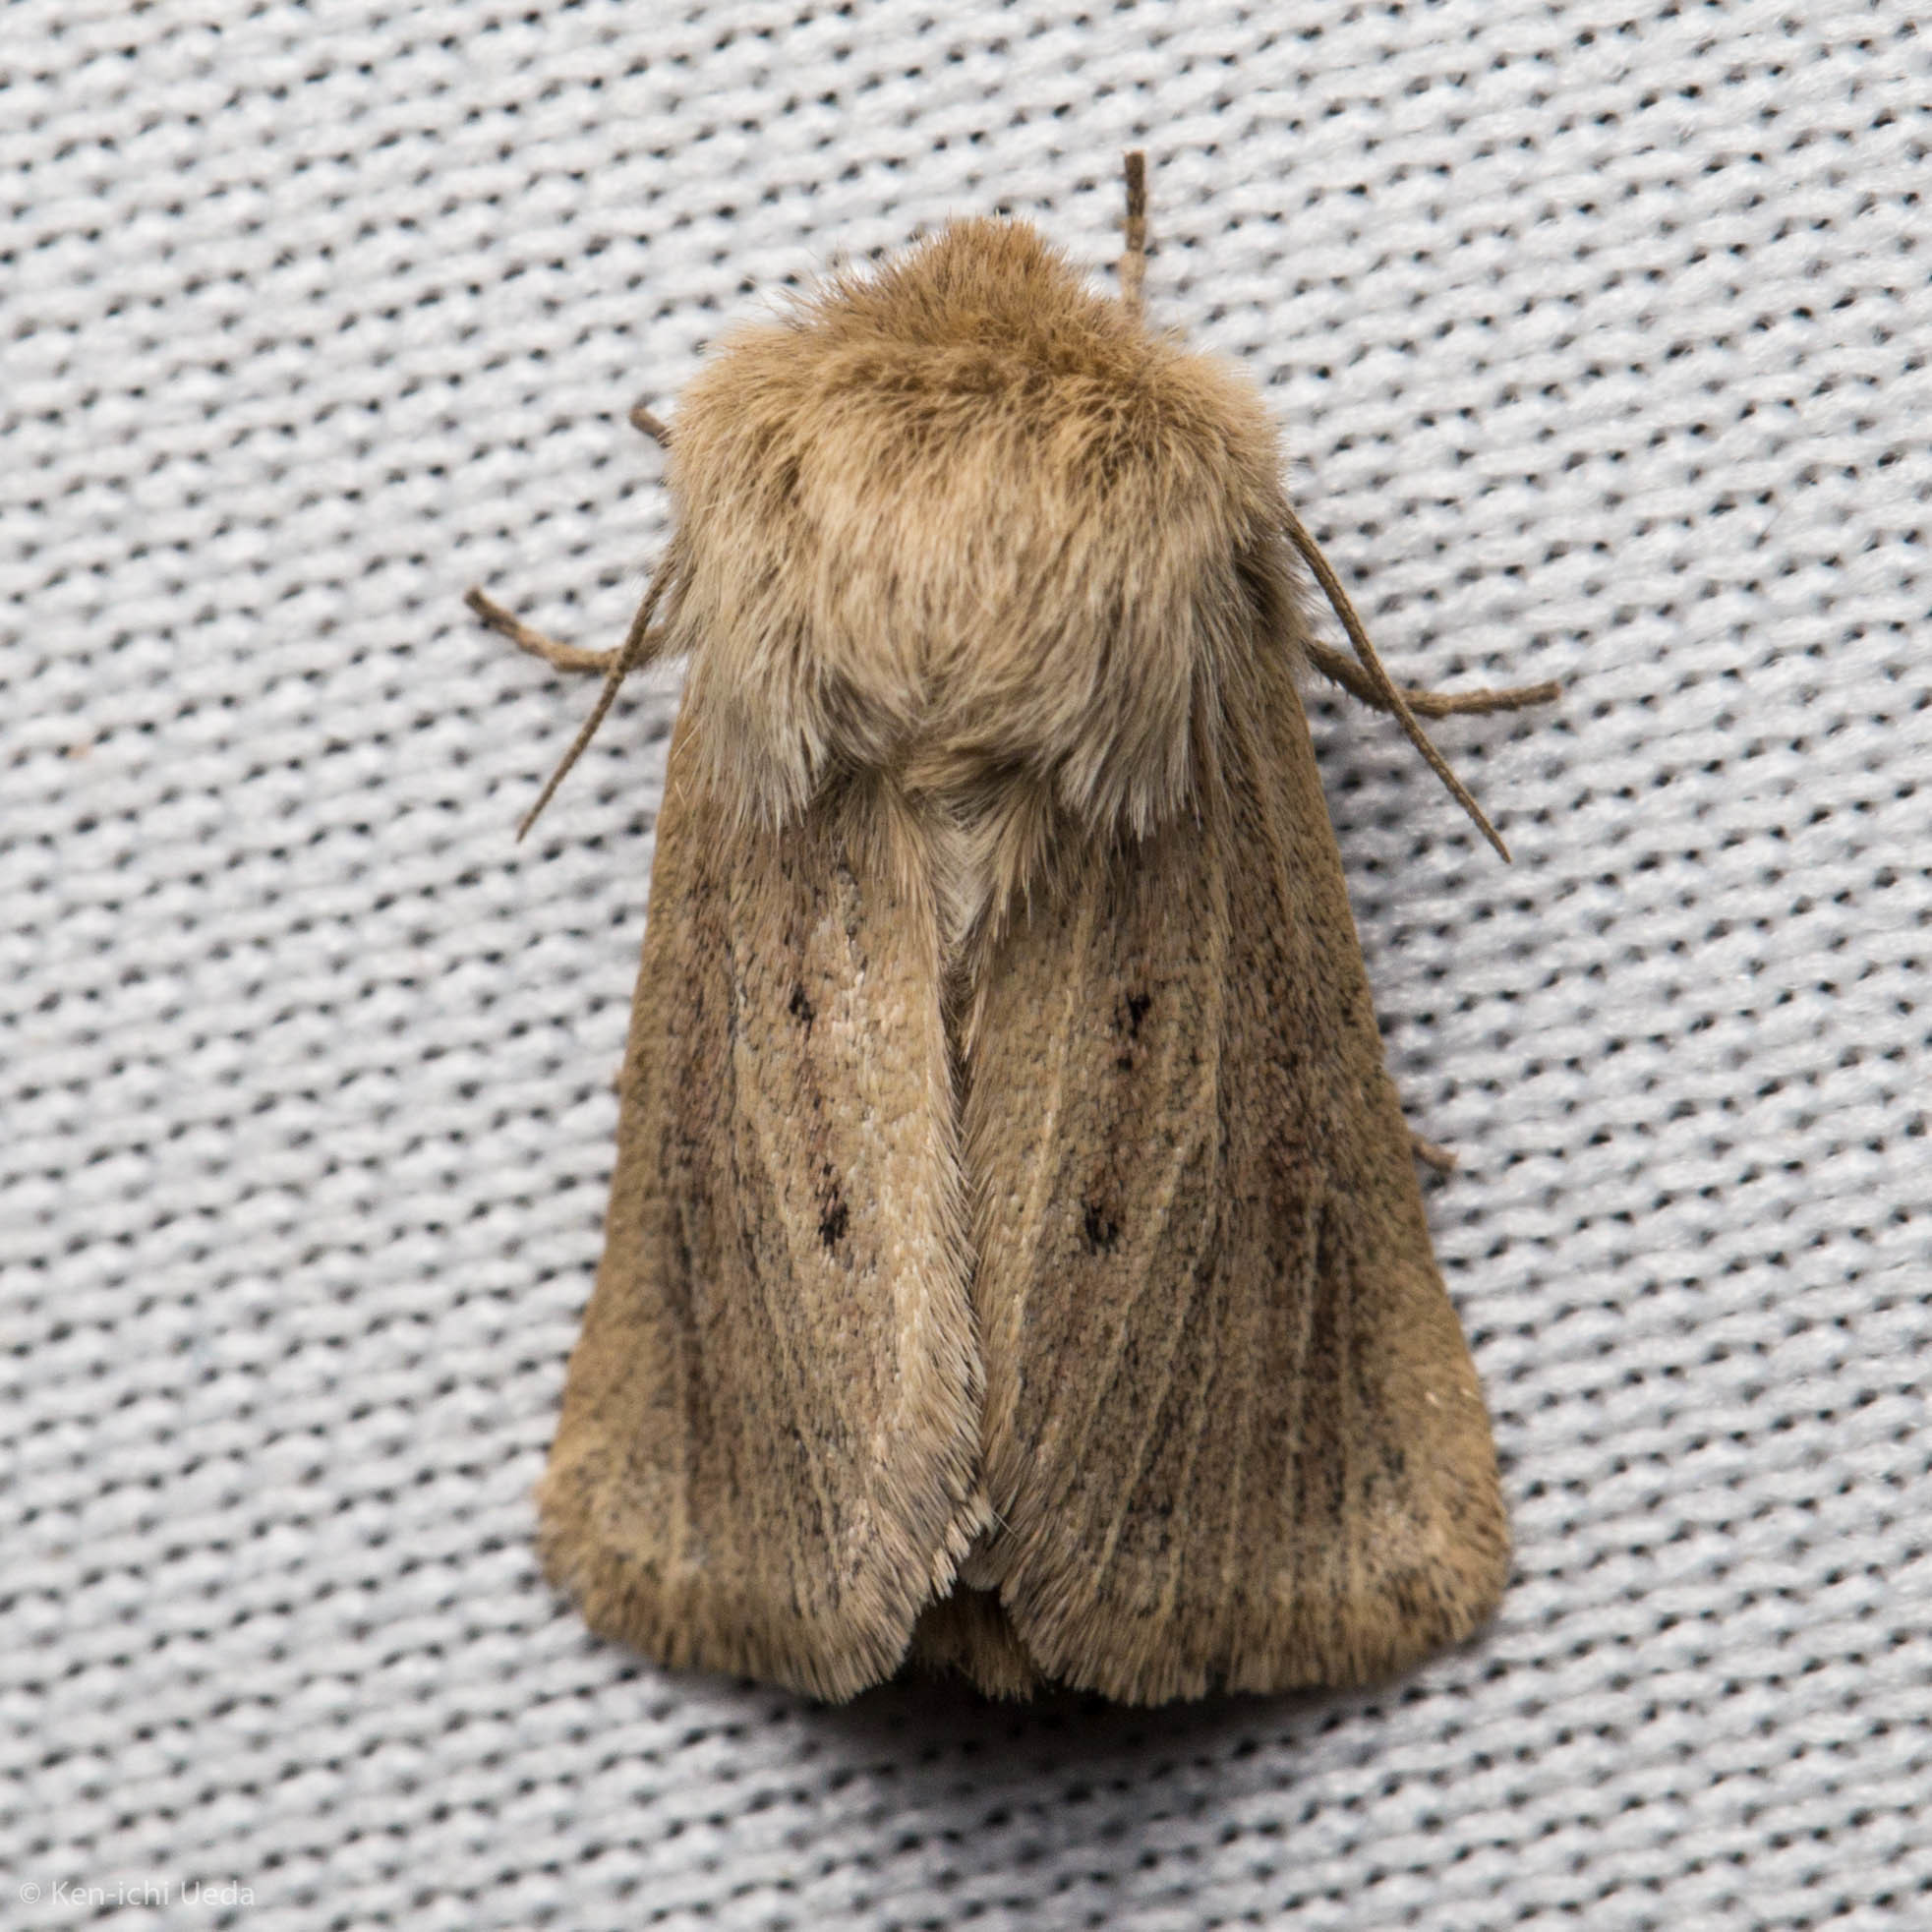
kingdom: Animalia
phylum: Arthropoda
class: Insecta
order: Lepidoptera
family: Erebidae
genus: Spilosoma
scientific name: Spilosoma vagans
